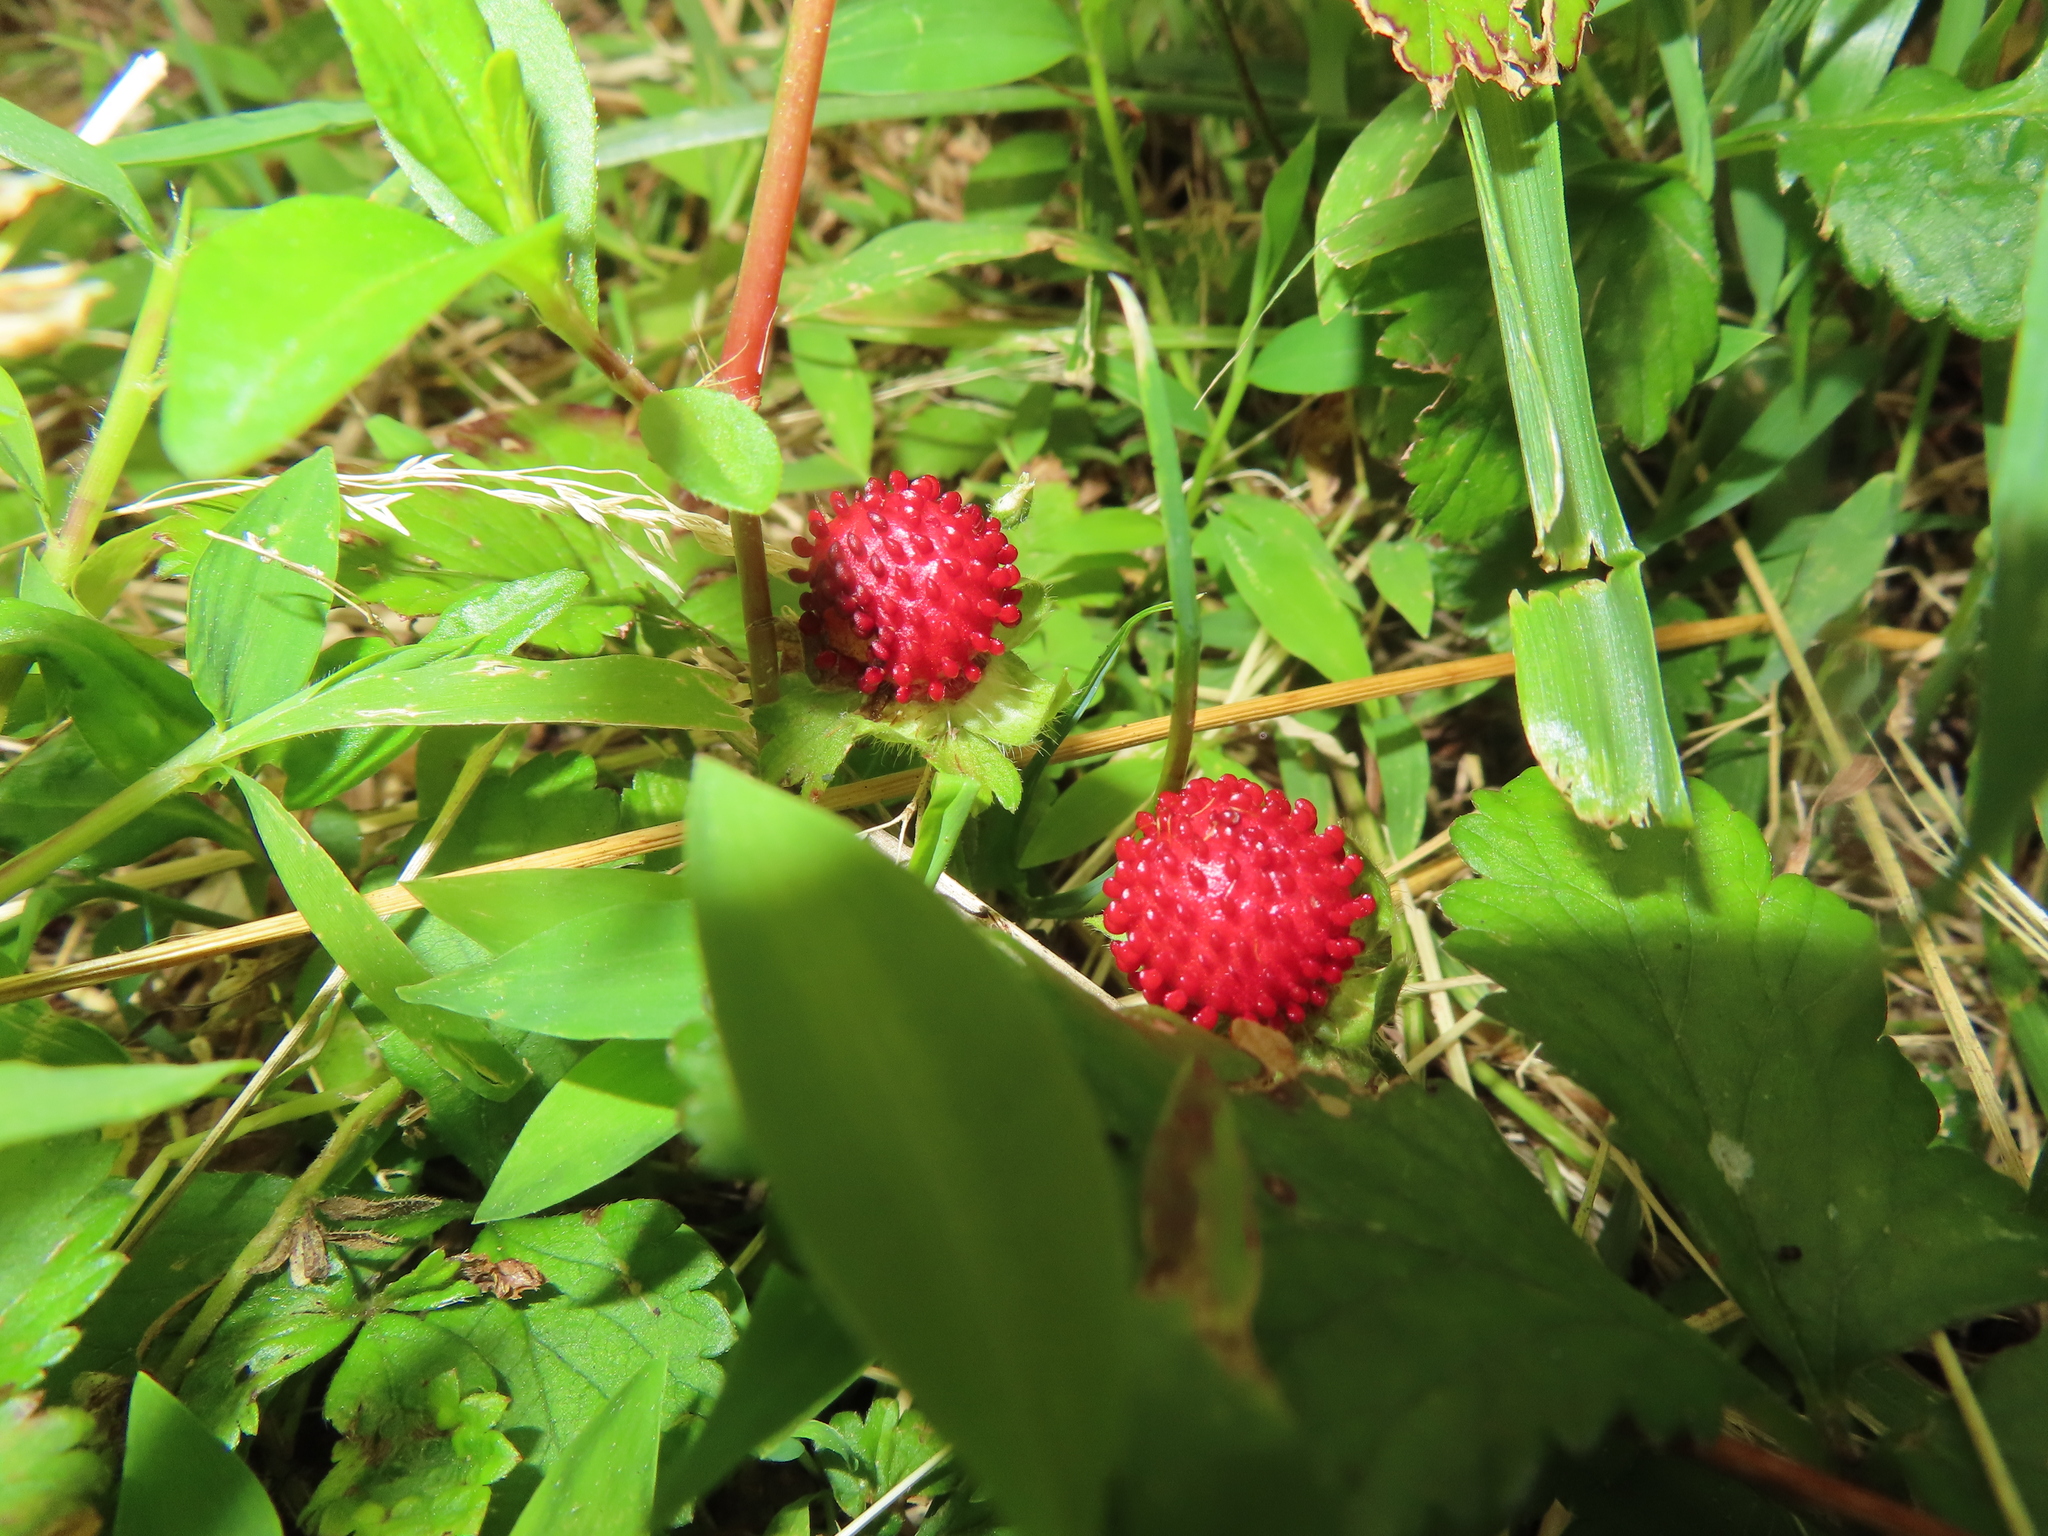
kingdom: Plantae
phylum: Tracheophyta
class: Magnoliopsida
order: Rosales
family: Rosaceae
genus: Potentilla
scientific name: Potentilla indica
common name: Yellow-flowered strawberry
